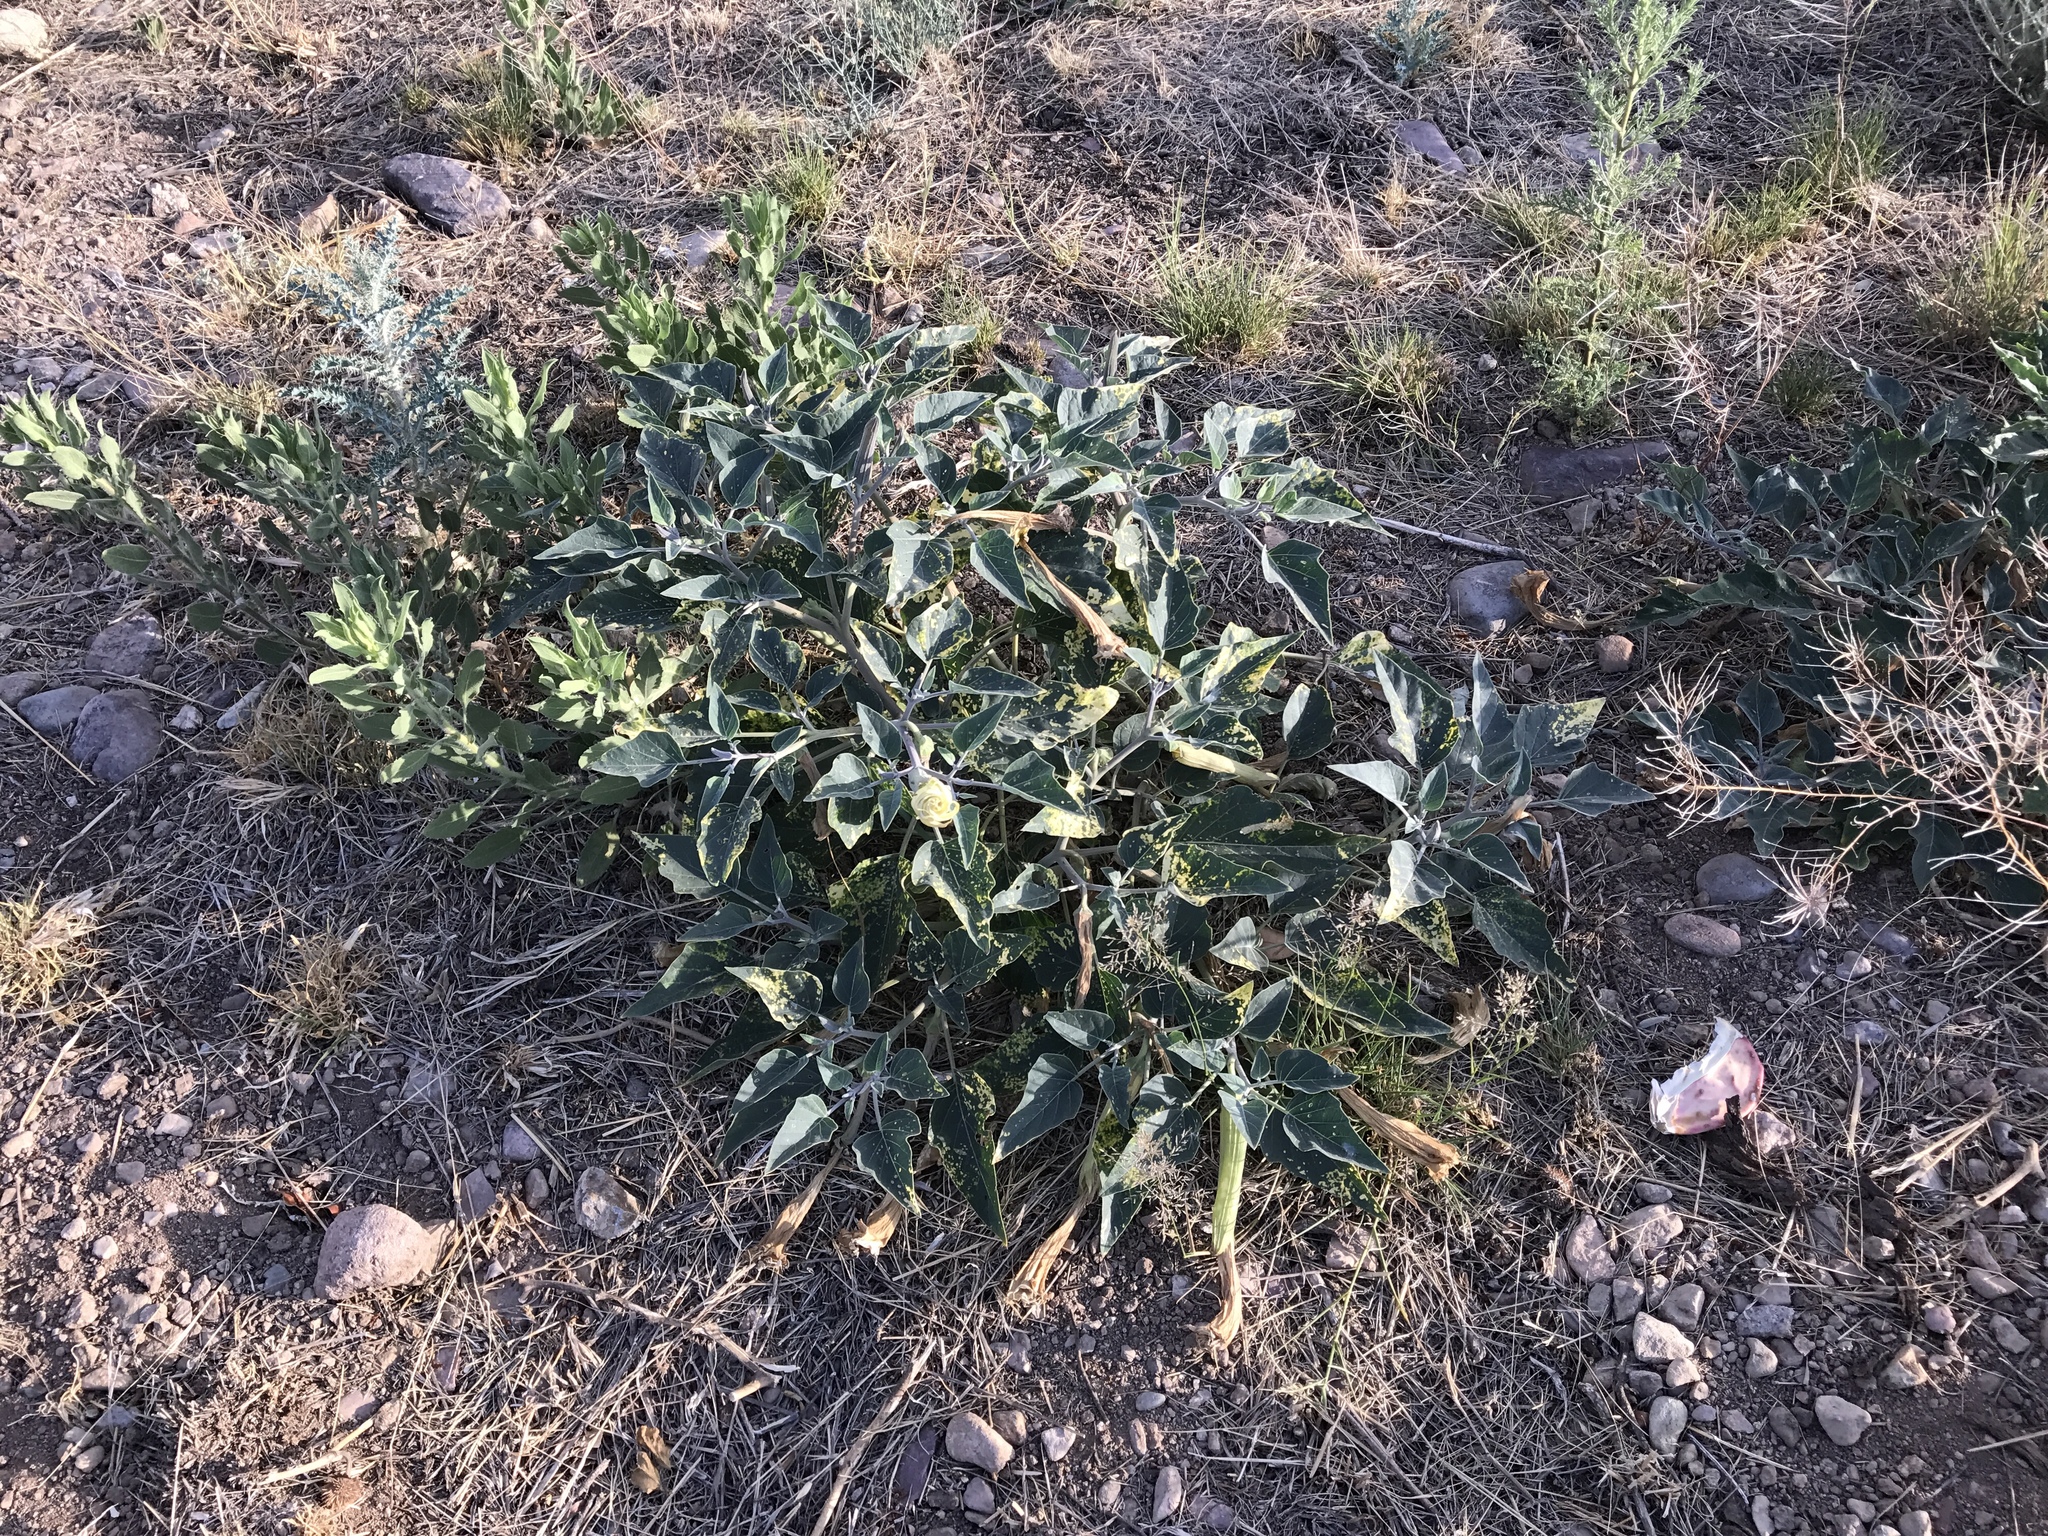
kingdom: Plantae
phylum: Tracheophyta
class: Magnoliopsida
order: Solanales
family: Solanaceae
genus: Datura
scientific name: Datura wrightii
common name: Sacred thorn-apple
